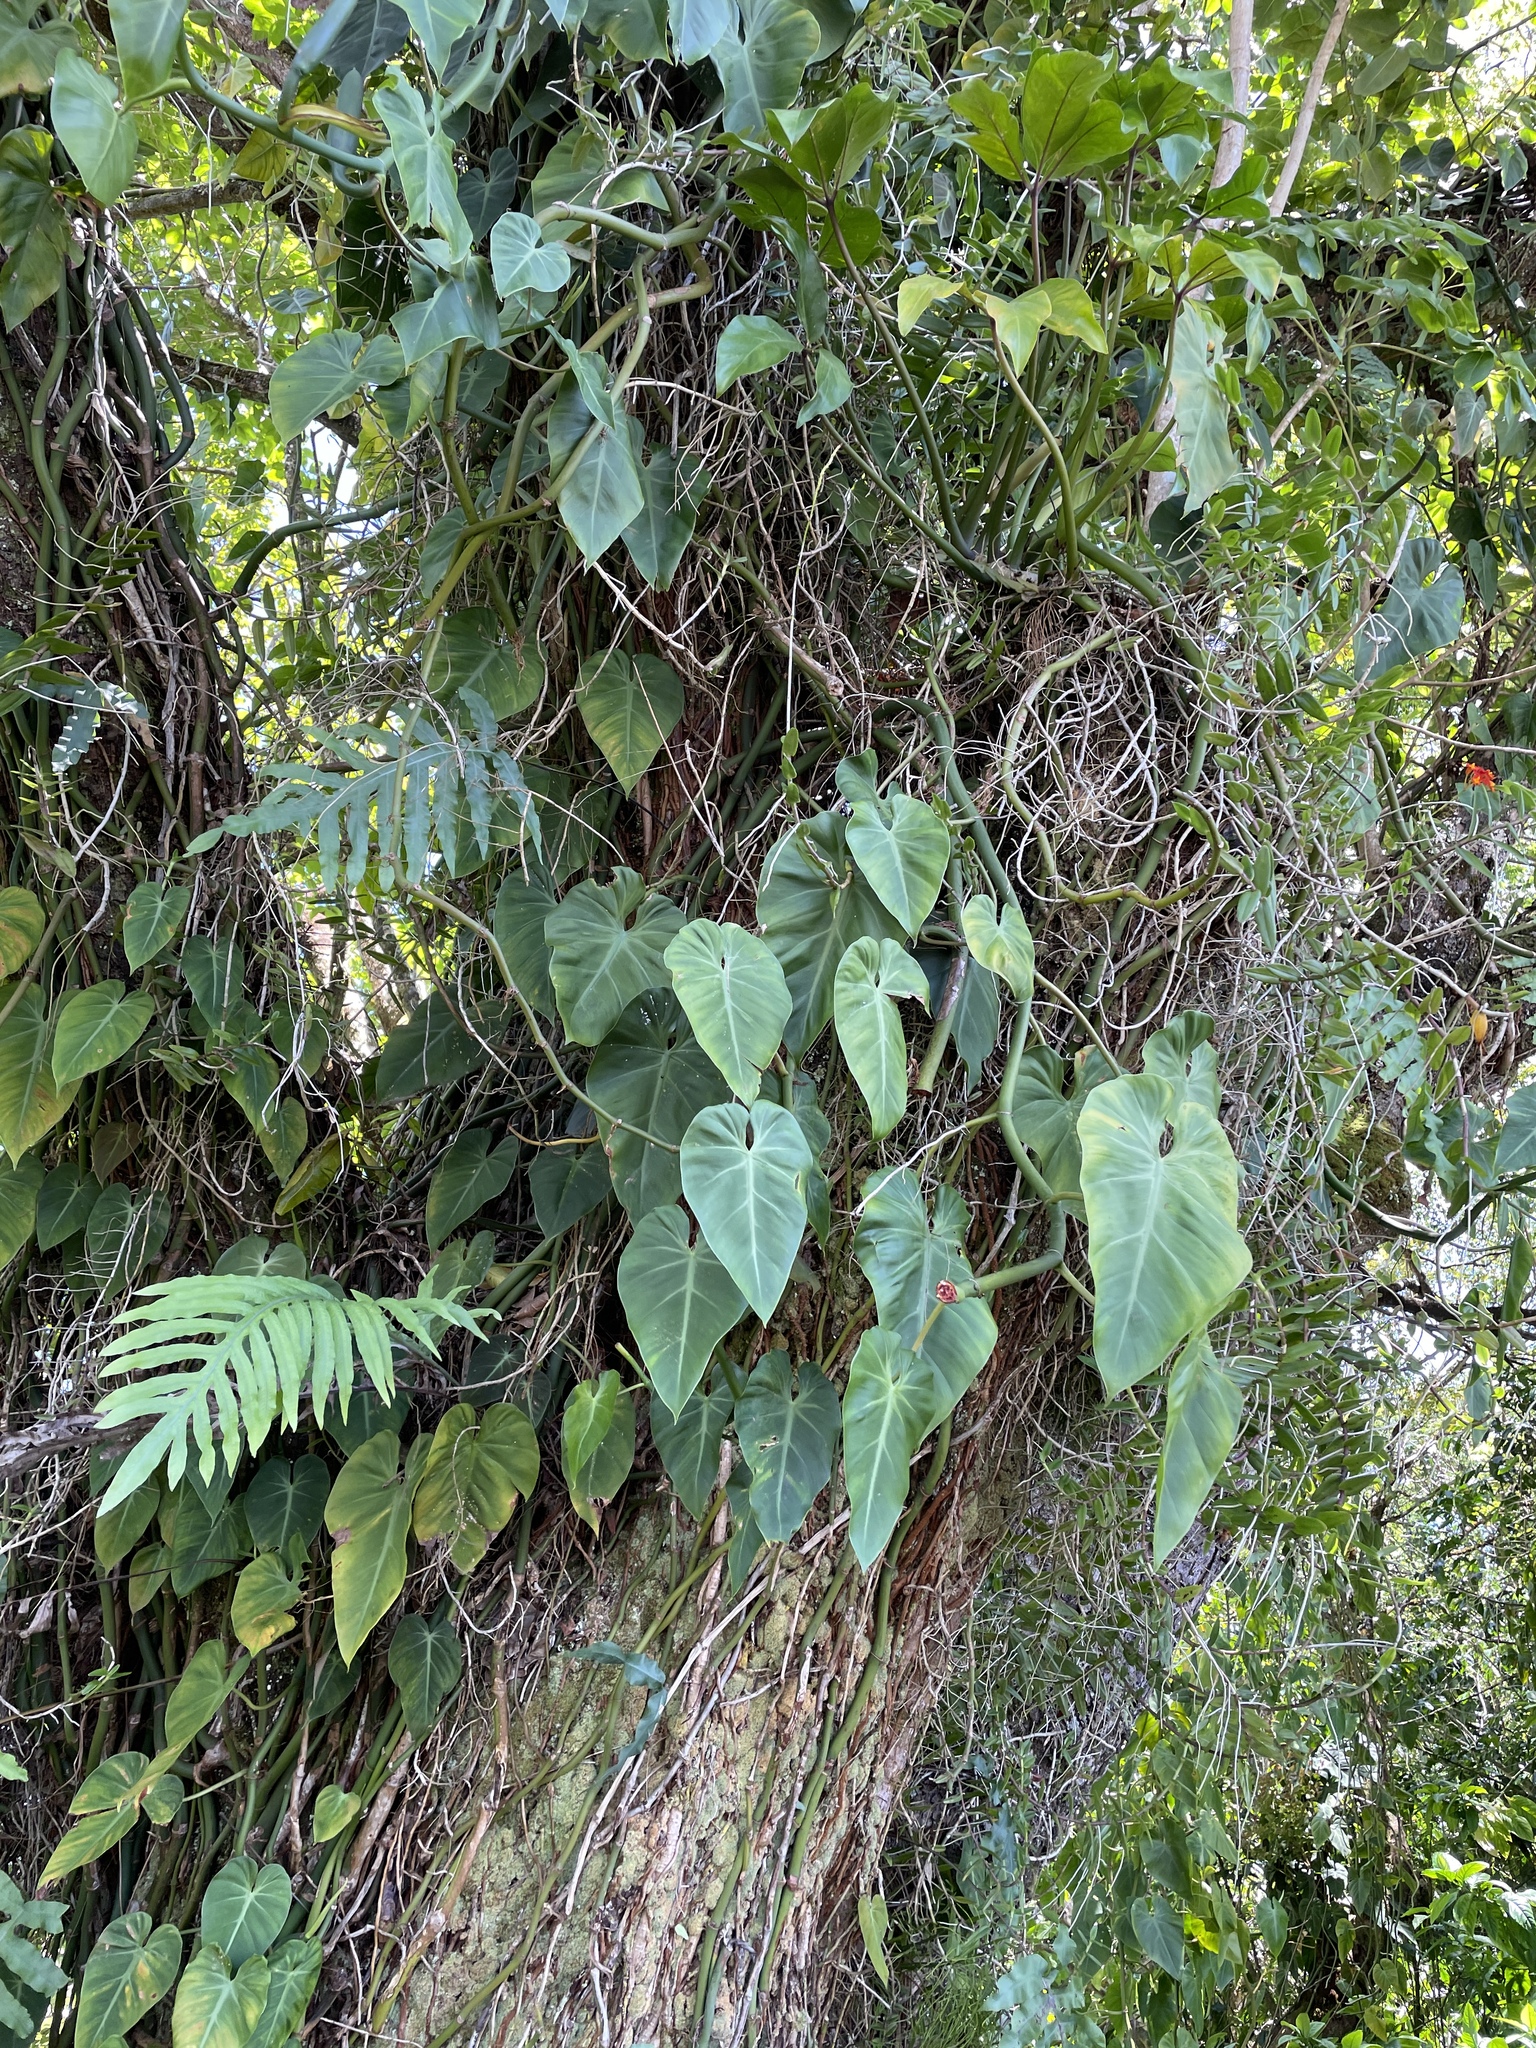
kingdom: Plantae
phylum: Tracheophyta
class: Liliopsida
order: Alismatales
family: Araceae
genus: Philodendron
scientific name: Philodendron hederaceum
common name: Vilevine
